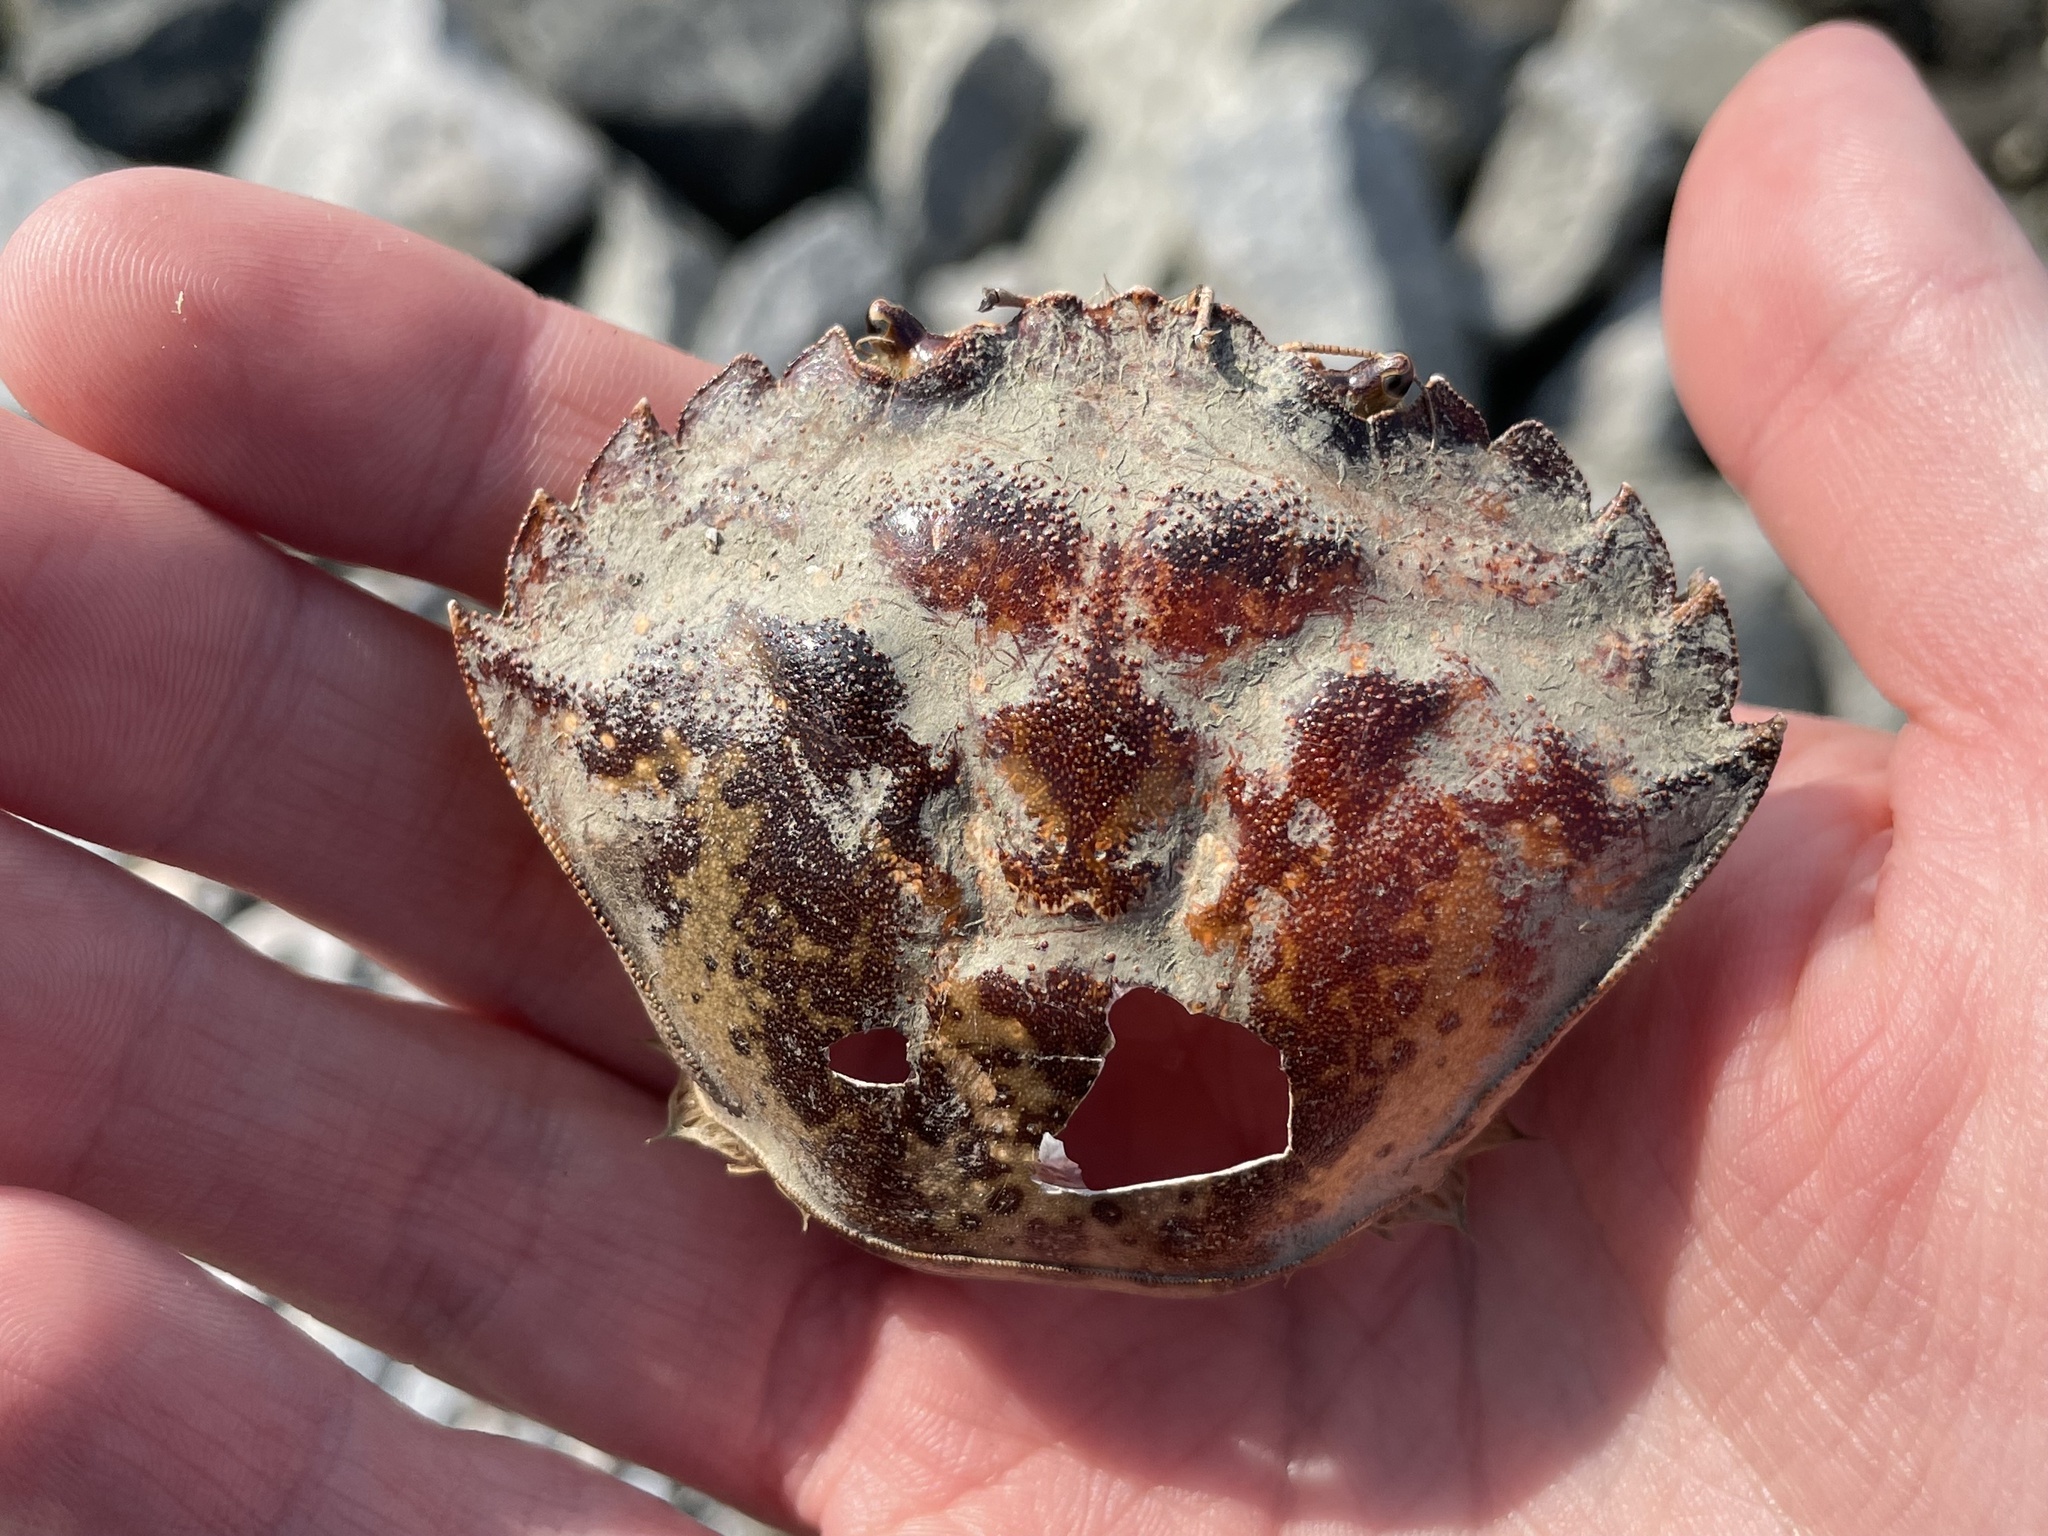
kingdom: Animalia
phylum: Arthropoda
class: Malacostraca
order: Decapoda
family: Carcinidae
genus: Carcinus
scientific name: Carcinus maenas
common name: European green crab
